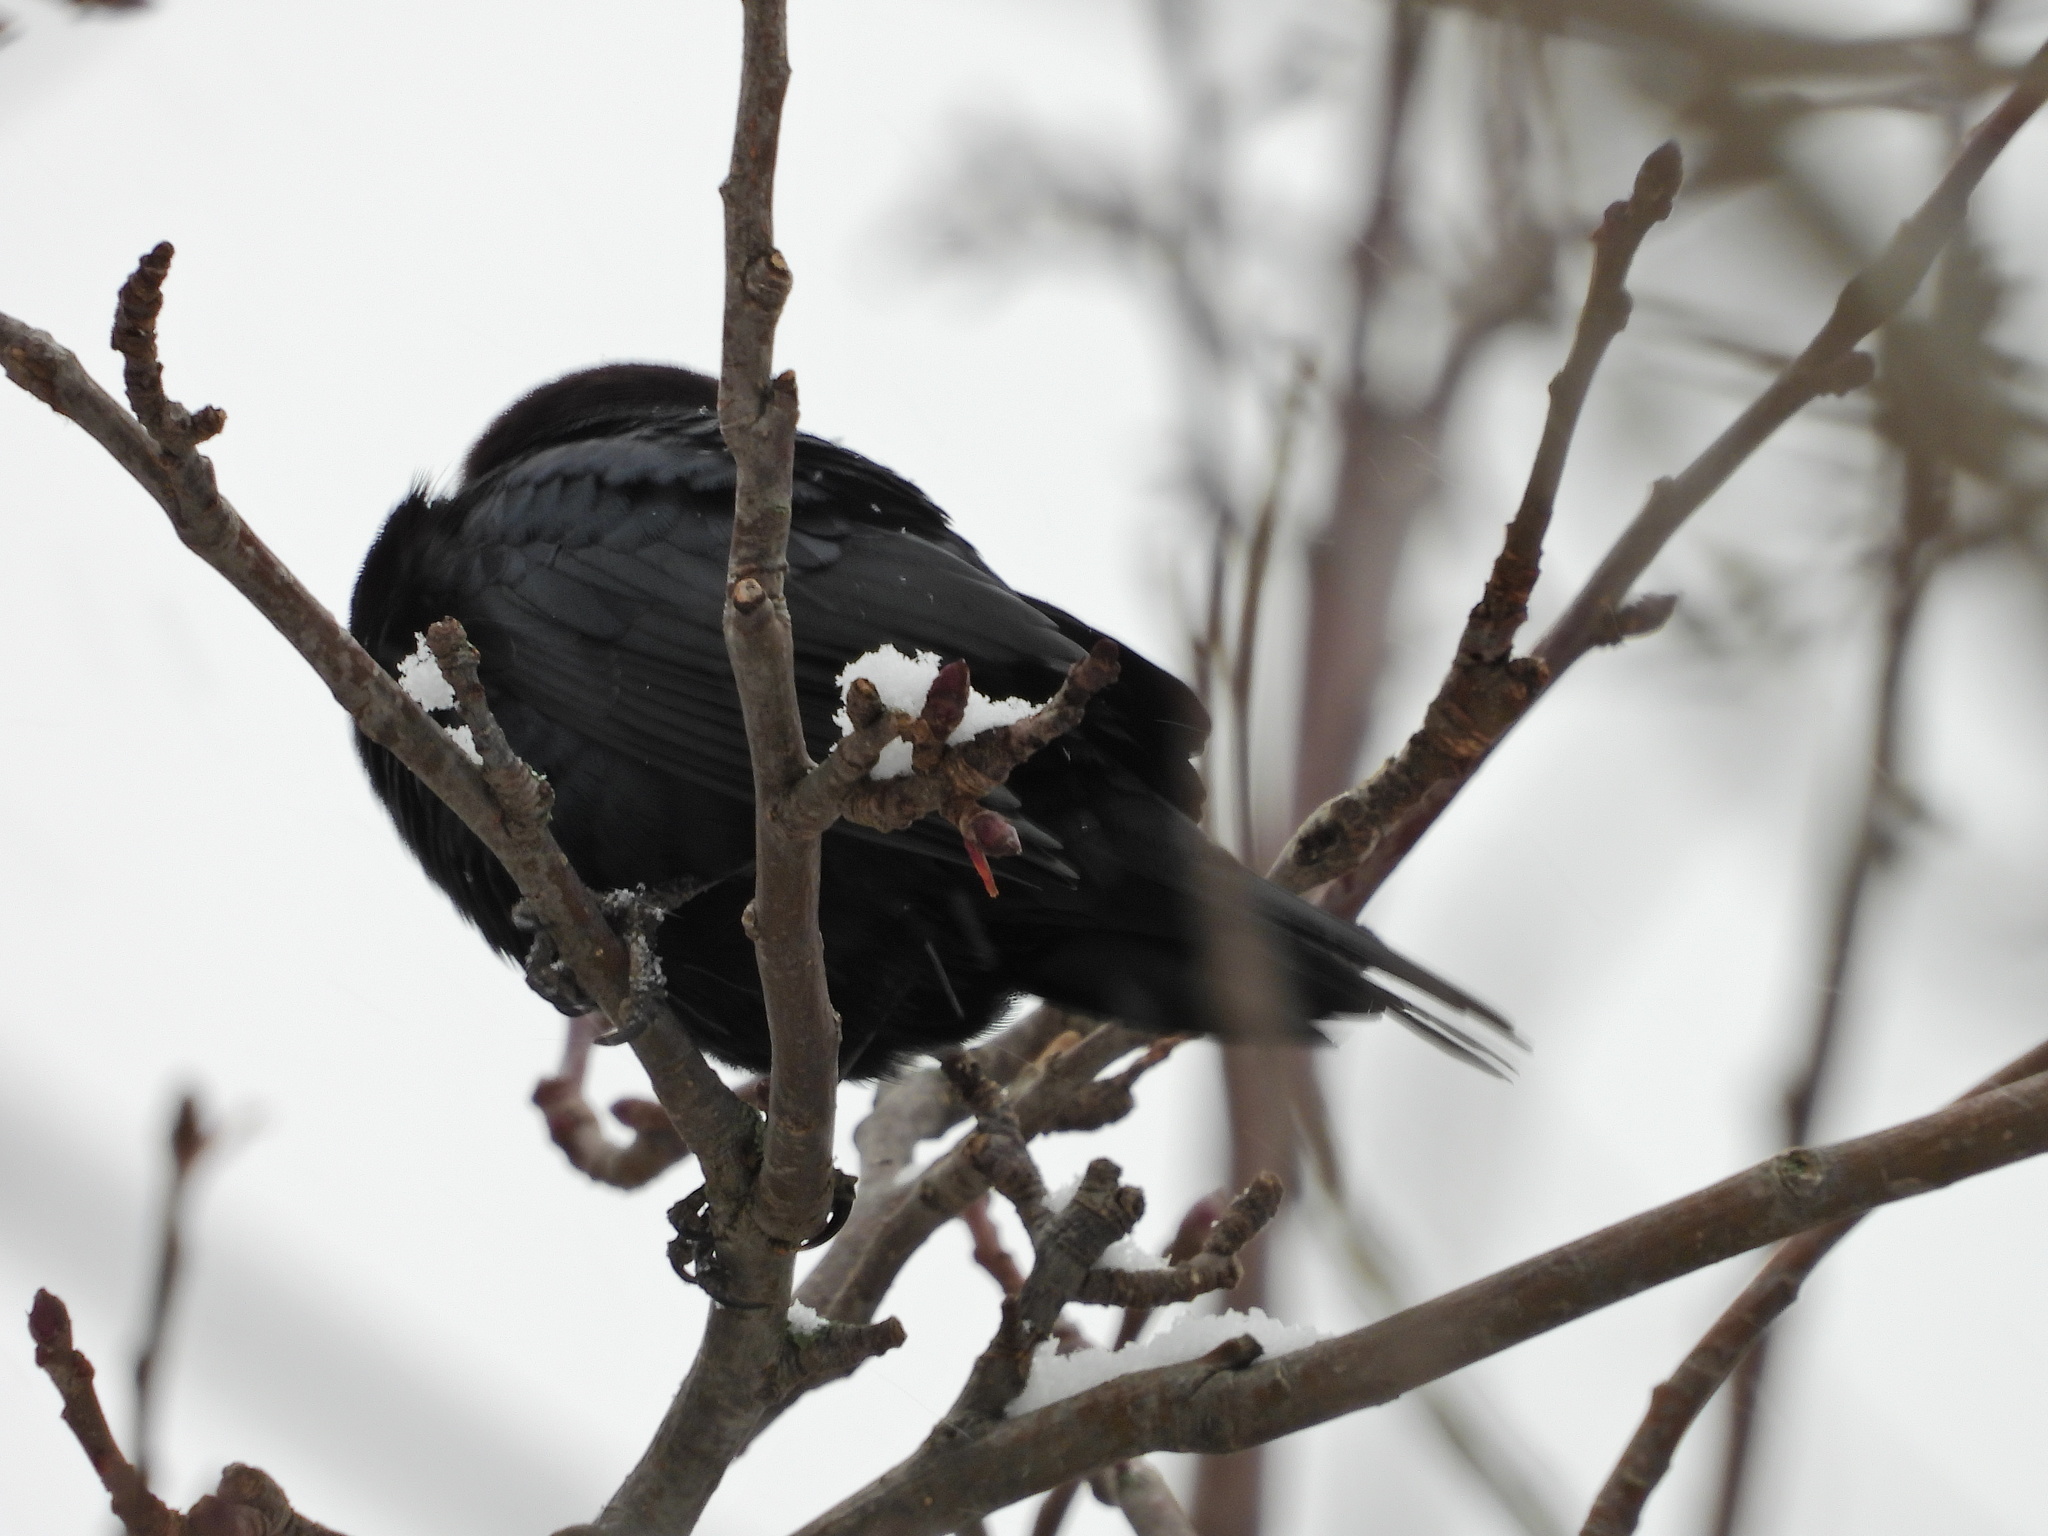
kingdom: Animalia
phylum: Chordata
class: Aves
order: Passeriformes
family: Icteridae
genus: Molothrus
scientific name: Molothrus ater
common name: Brown-headed cowbird
